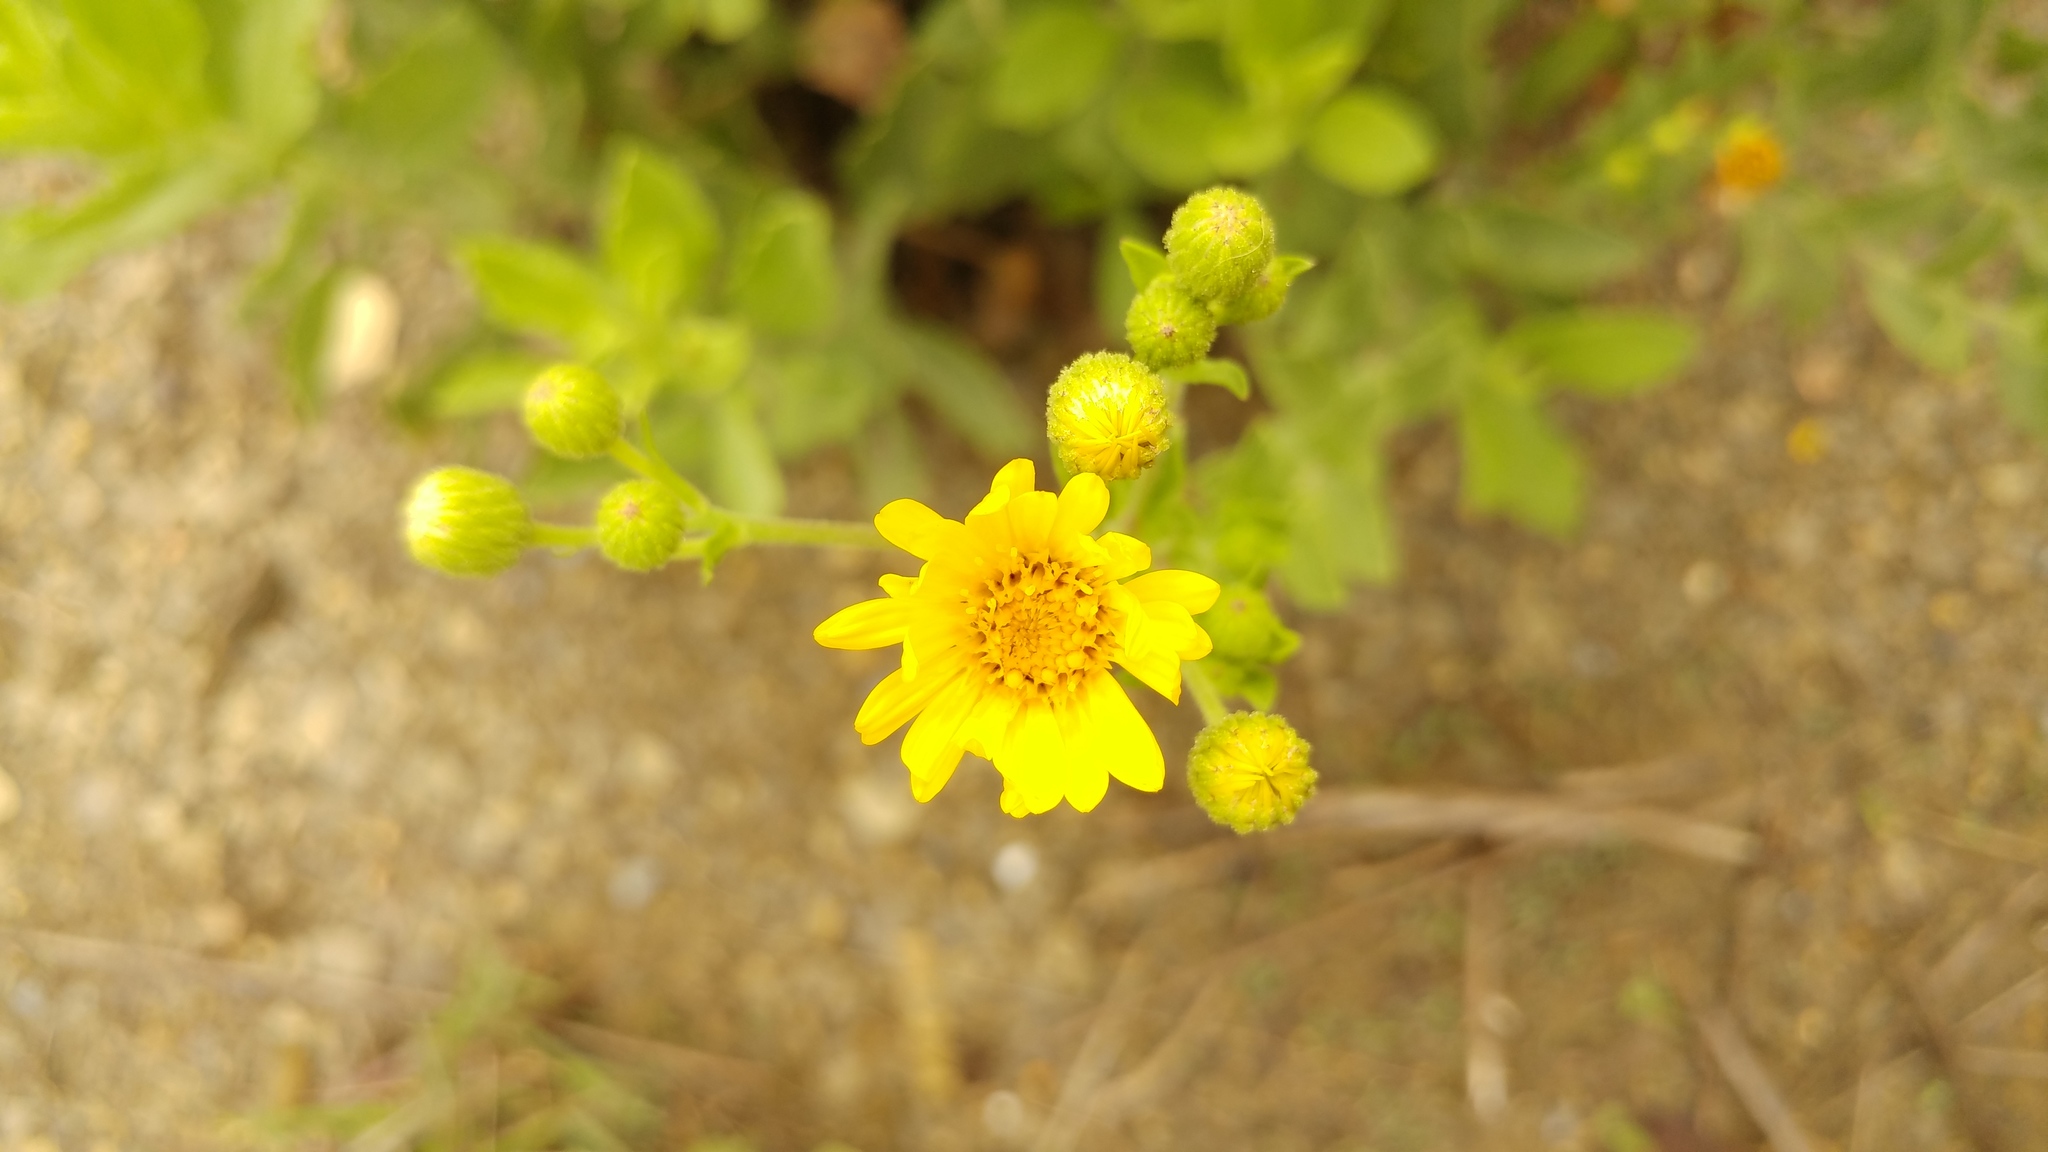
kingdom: Plantae
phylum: Tracheophyta
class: Magnoliopsida
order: Asterales
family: Asteraceae
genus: Heterotheca
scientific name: Heterotheca subaxillaris
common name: Camphorweed
